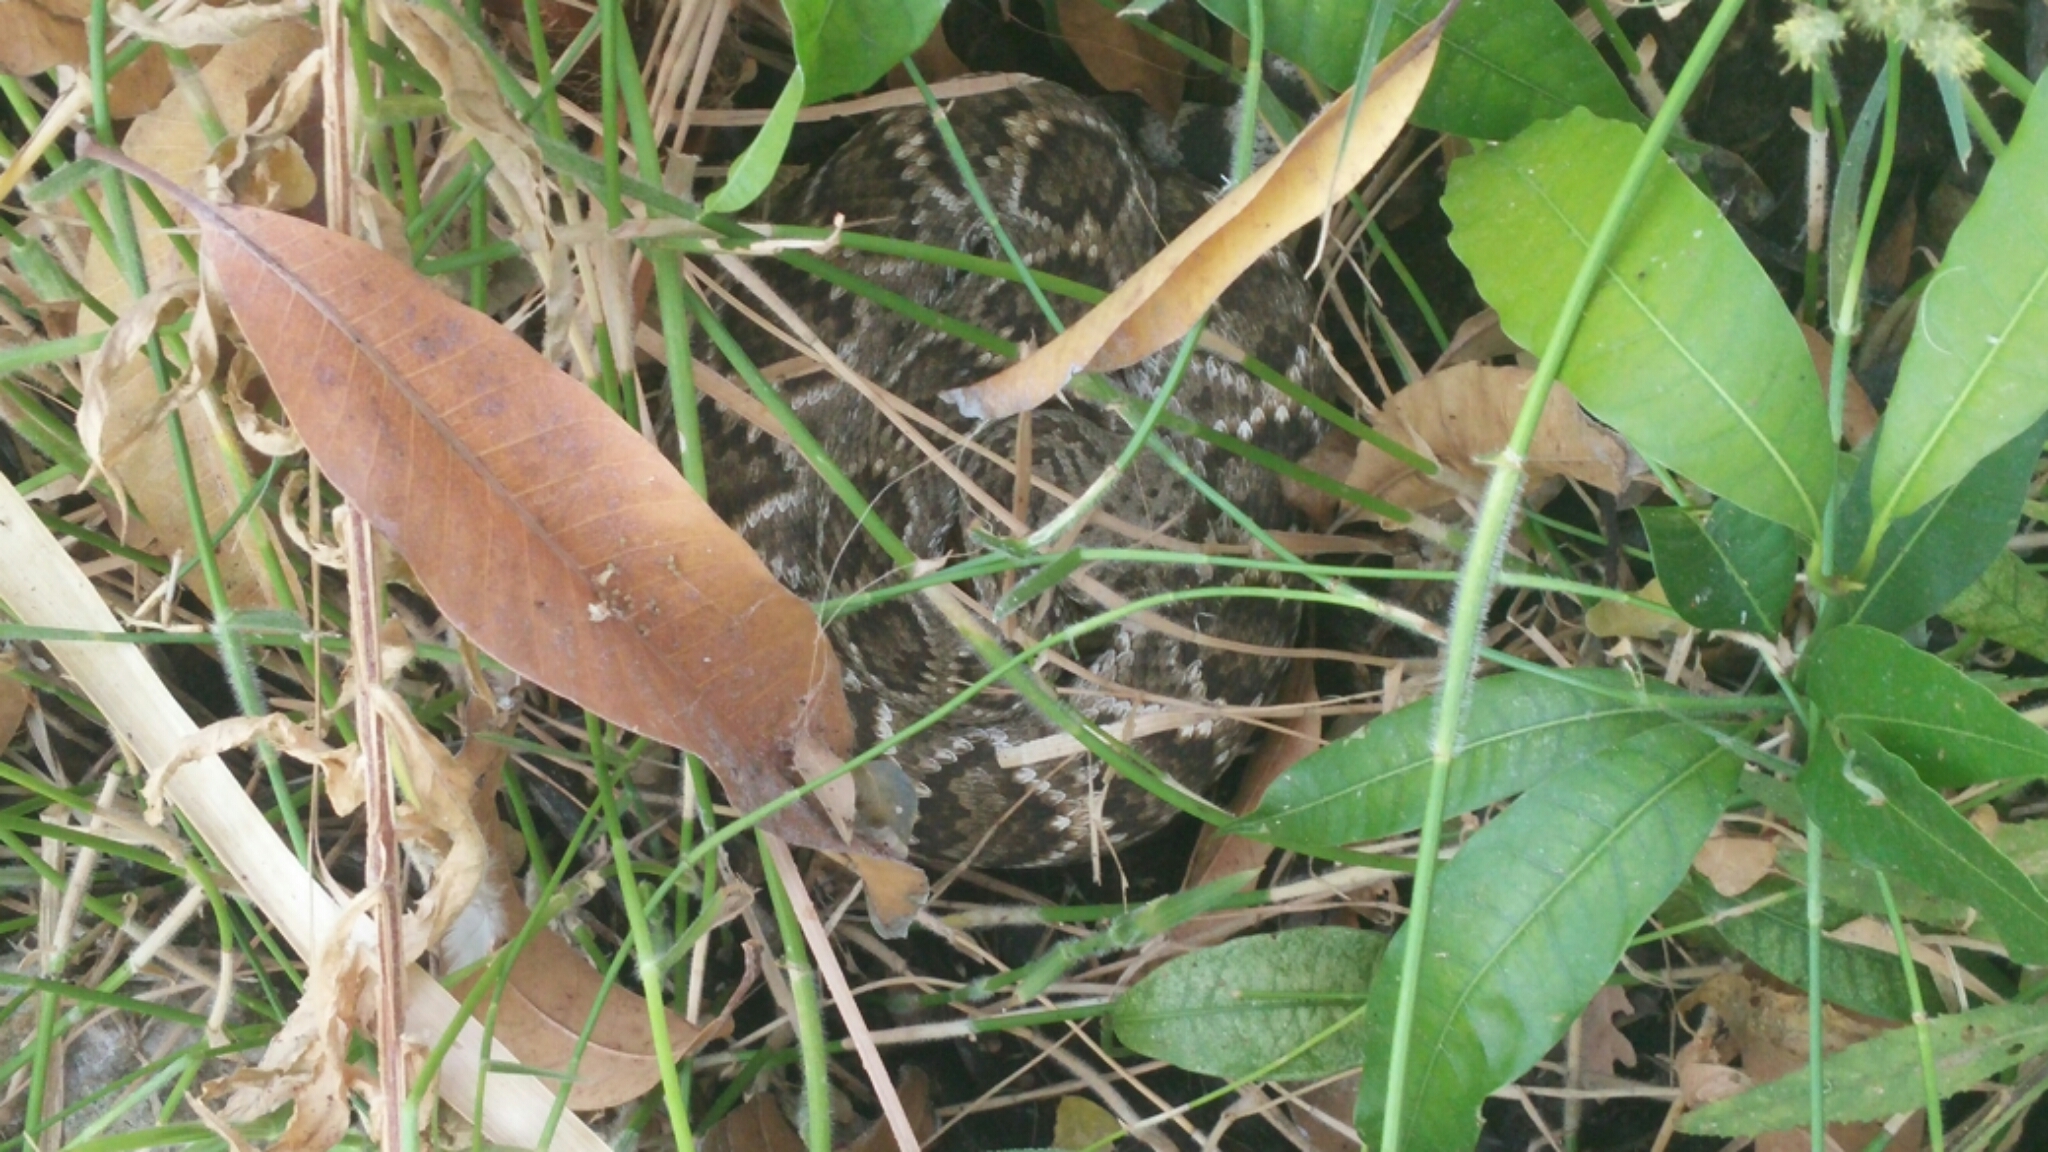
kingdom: Animalia
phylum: Chordata
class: Squamata
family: Viperidae
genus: Crotalus
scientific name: Crotalus ruber
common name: Red diamond rattlesnake
